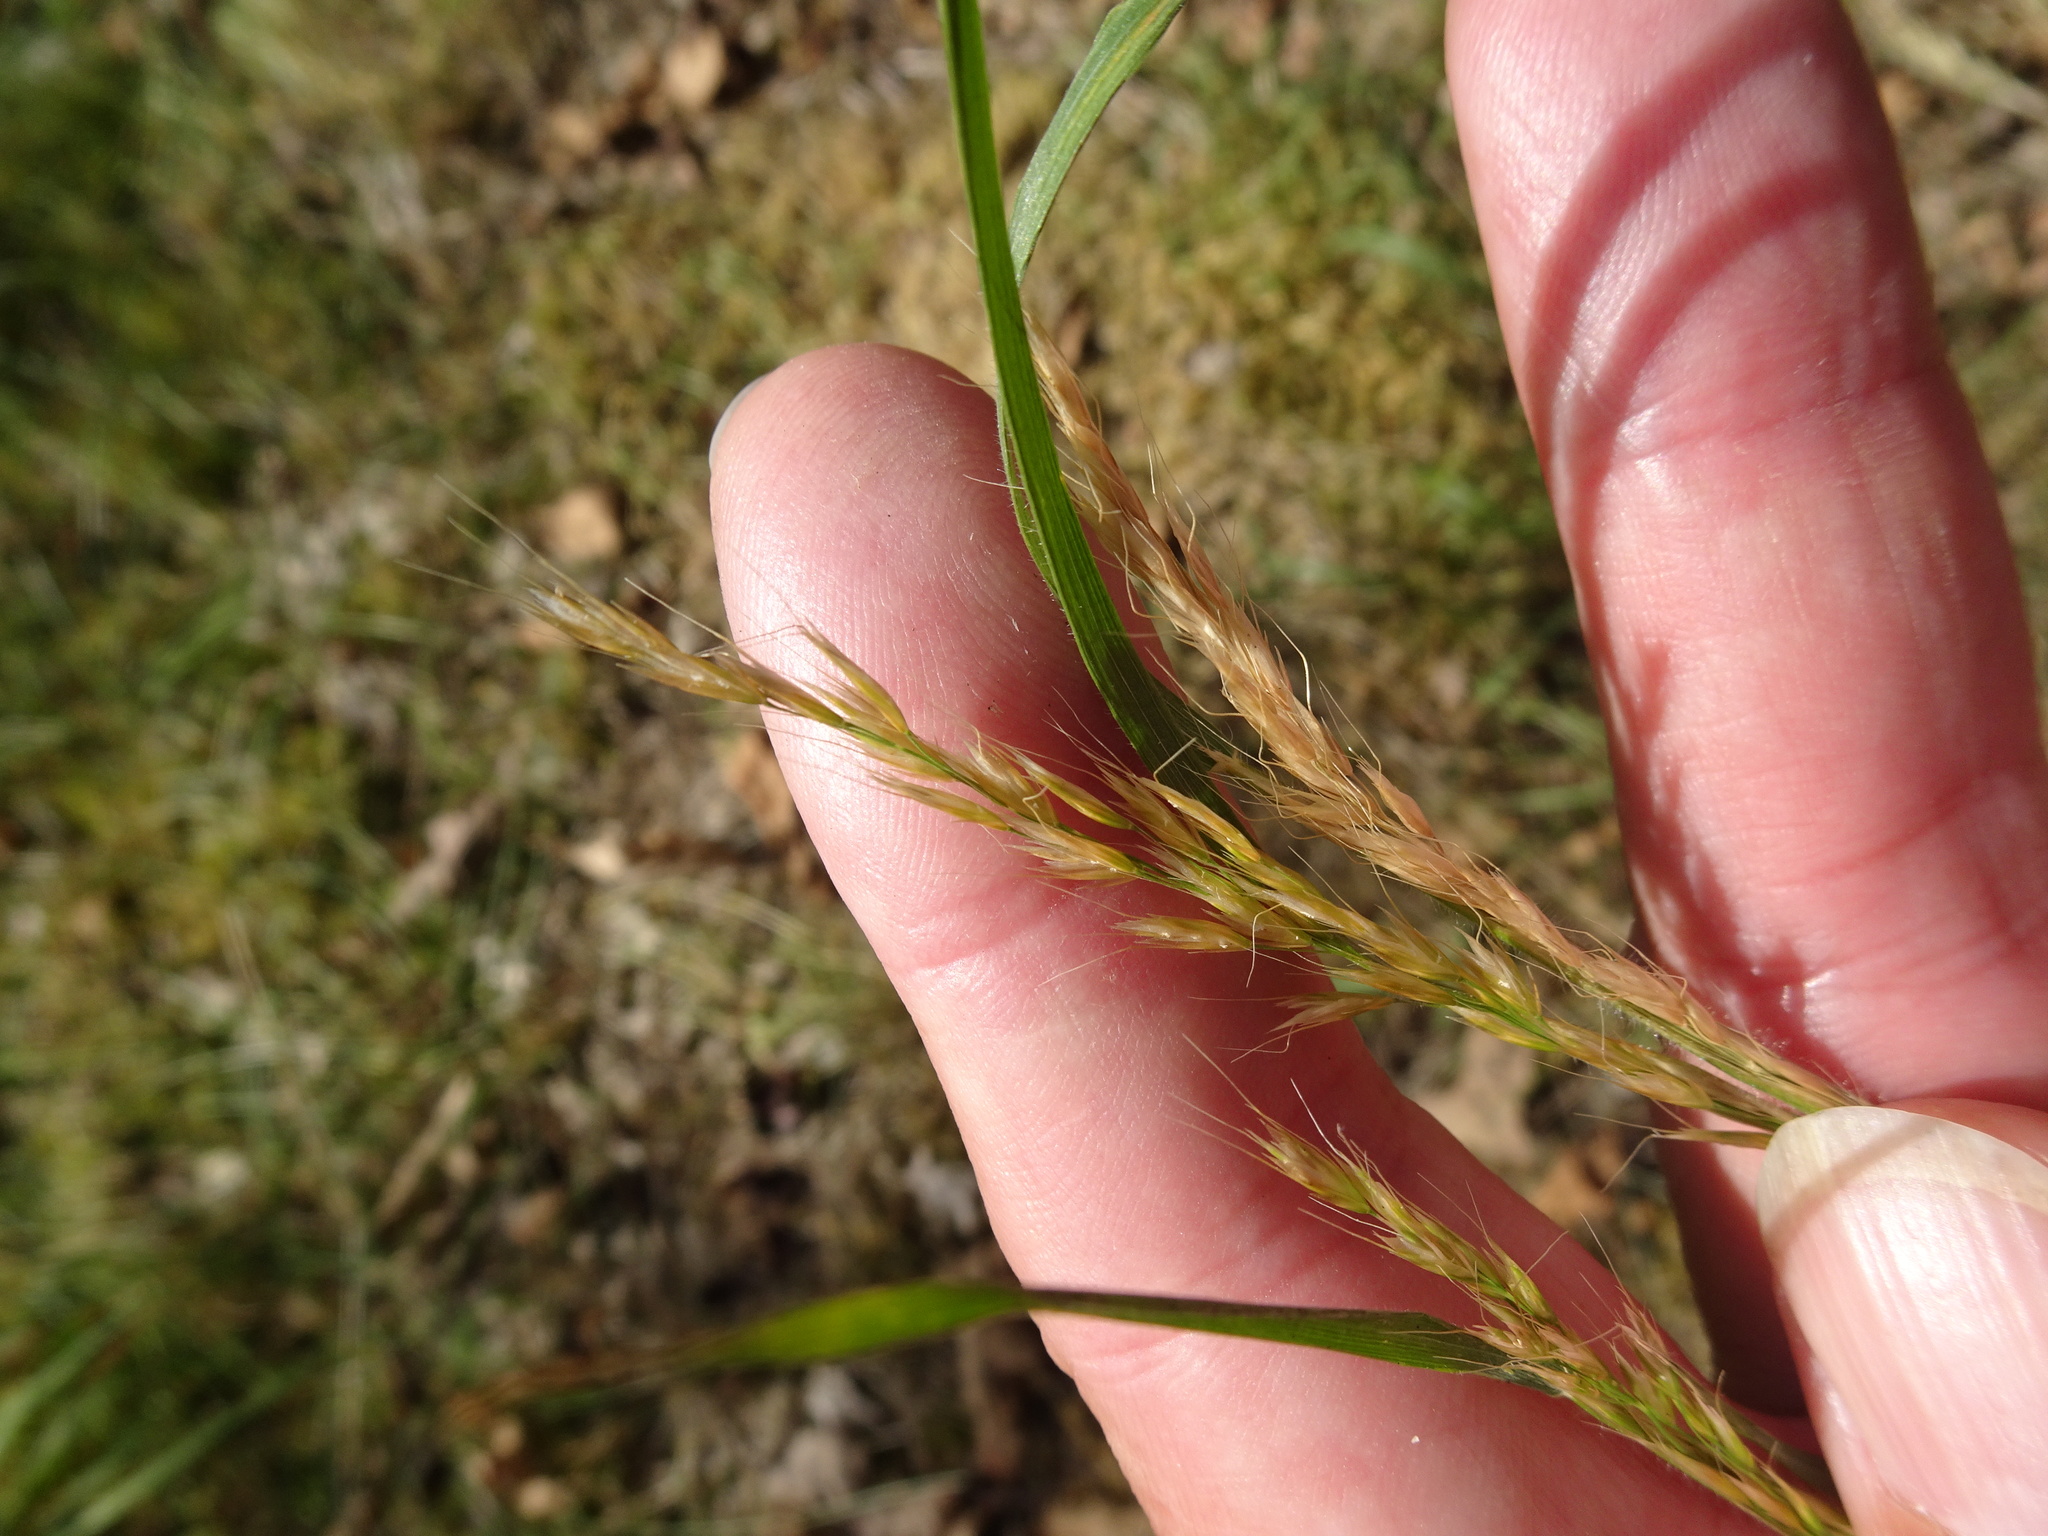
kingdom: Plantae
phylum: Tracheophyta
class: Liliopsida
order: Poales
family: Poaceae
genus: Trisetum
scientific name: Trisetum flavescens
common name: Yellow oat-grass
